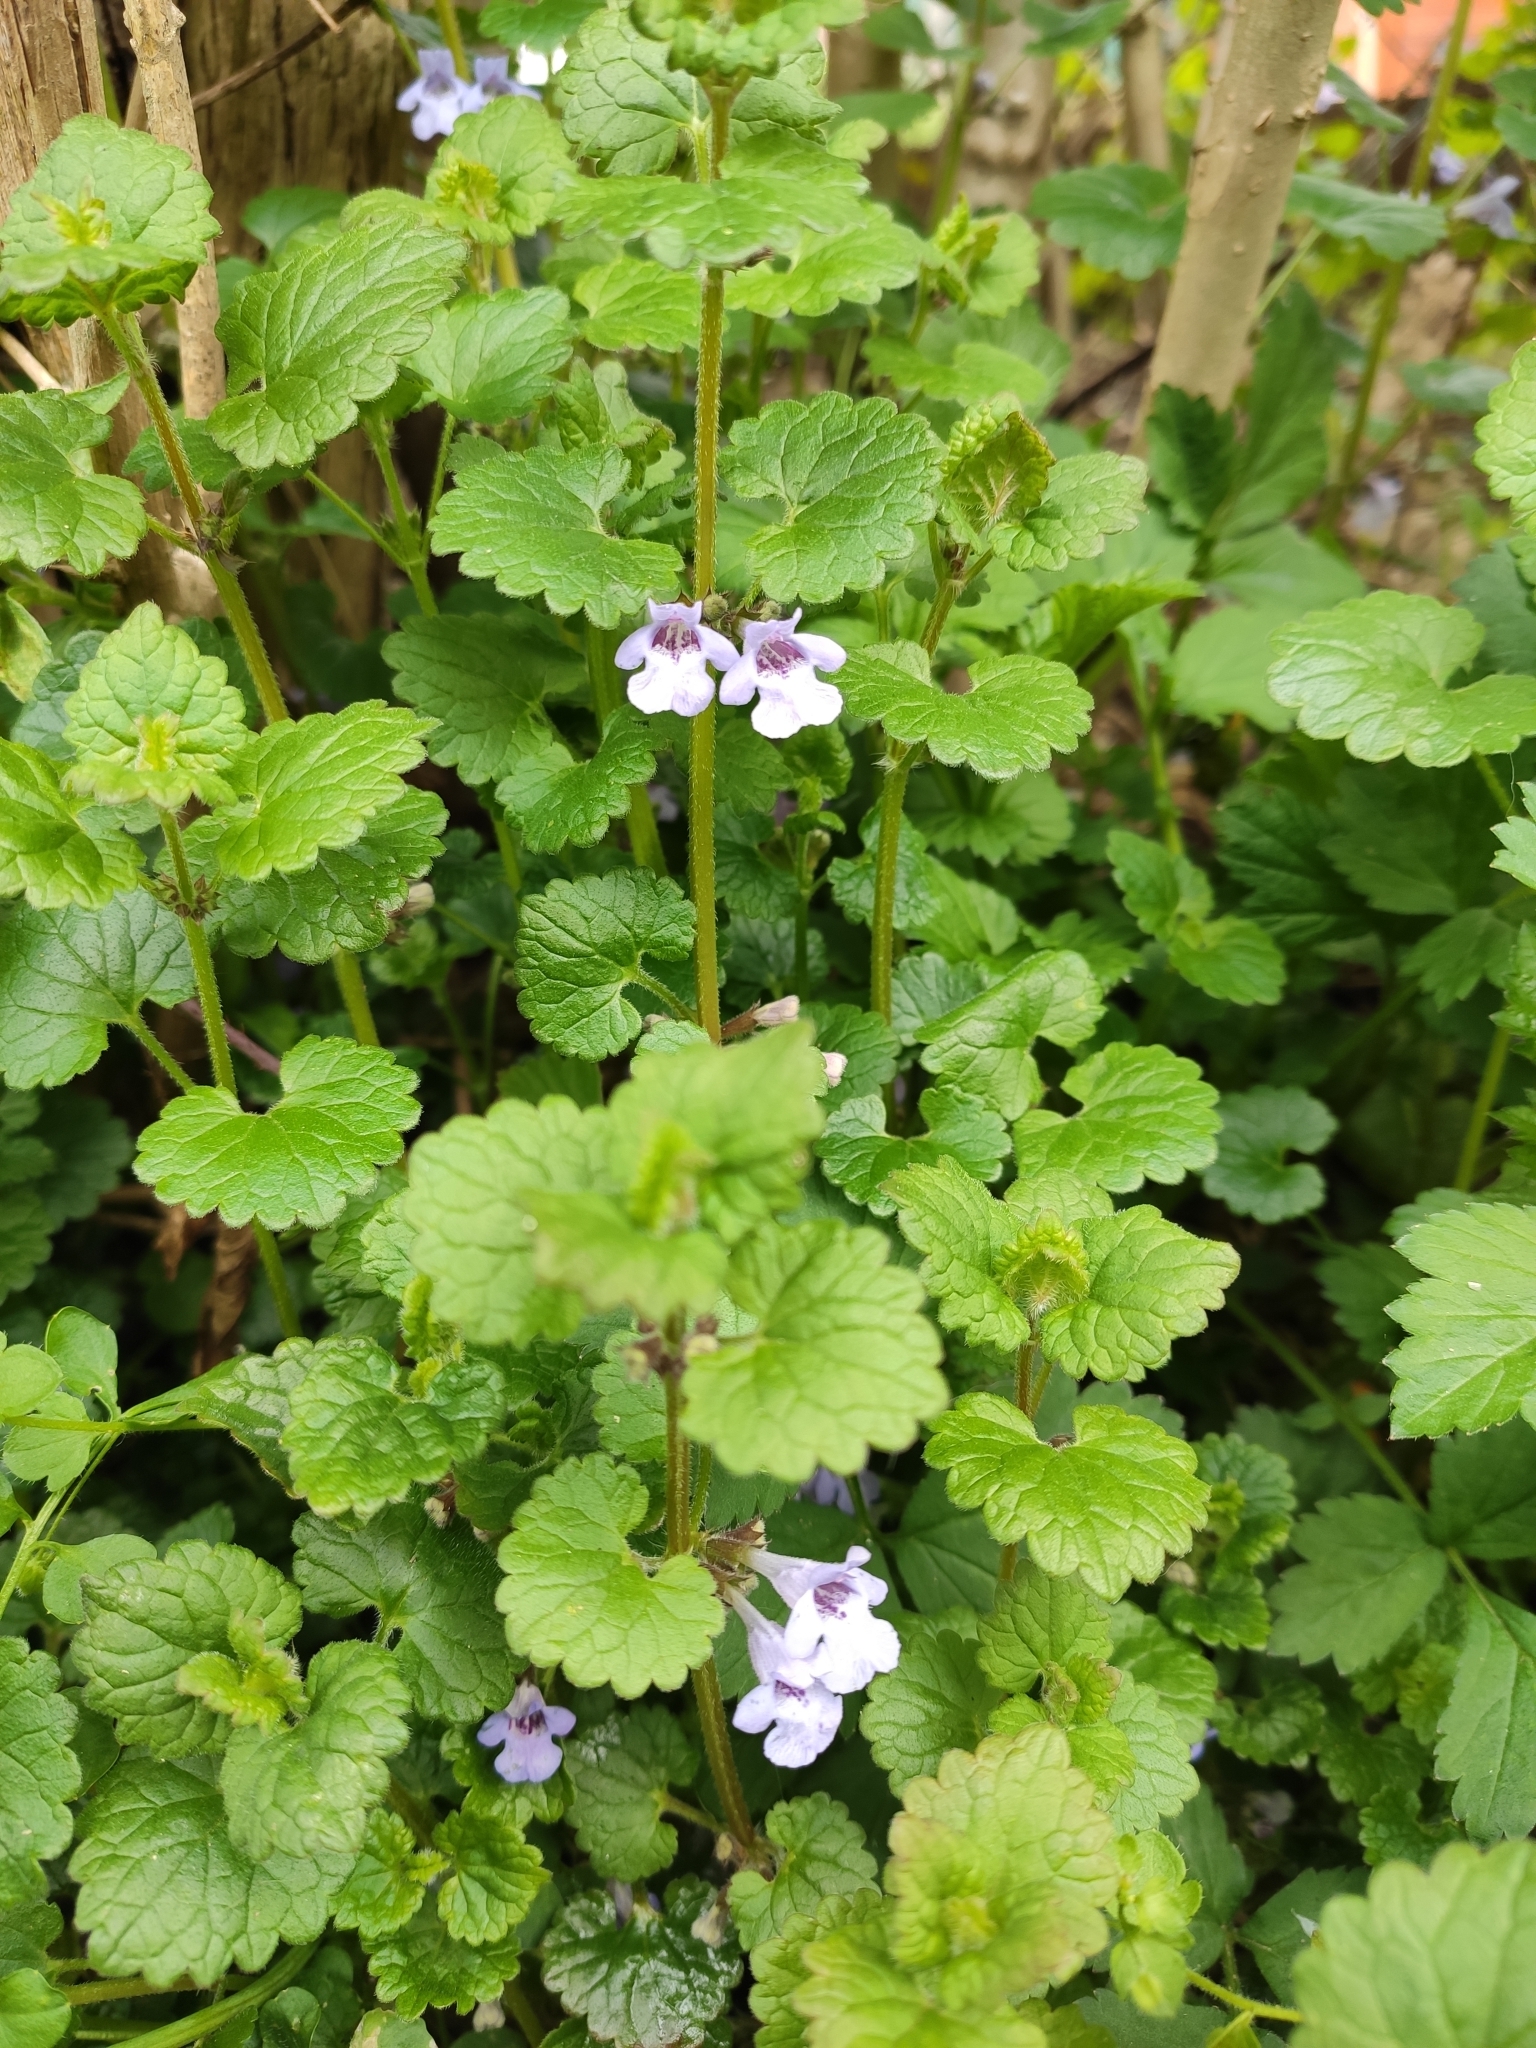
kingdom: Plantae
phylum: Tracheophyta
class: Magnoliopsida
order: Lamiales
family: Lamiaceae
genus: Glechoma
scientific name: Glechoma hederacea
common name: Ground ivy
